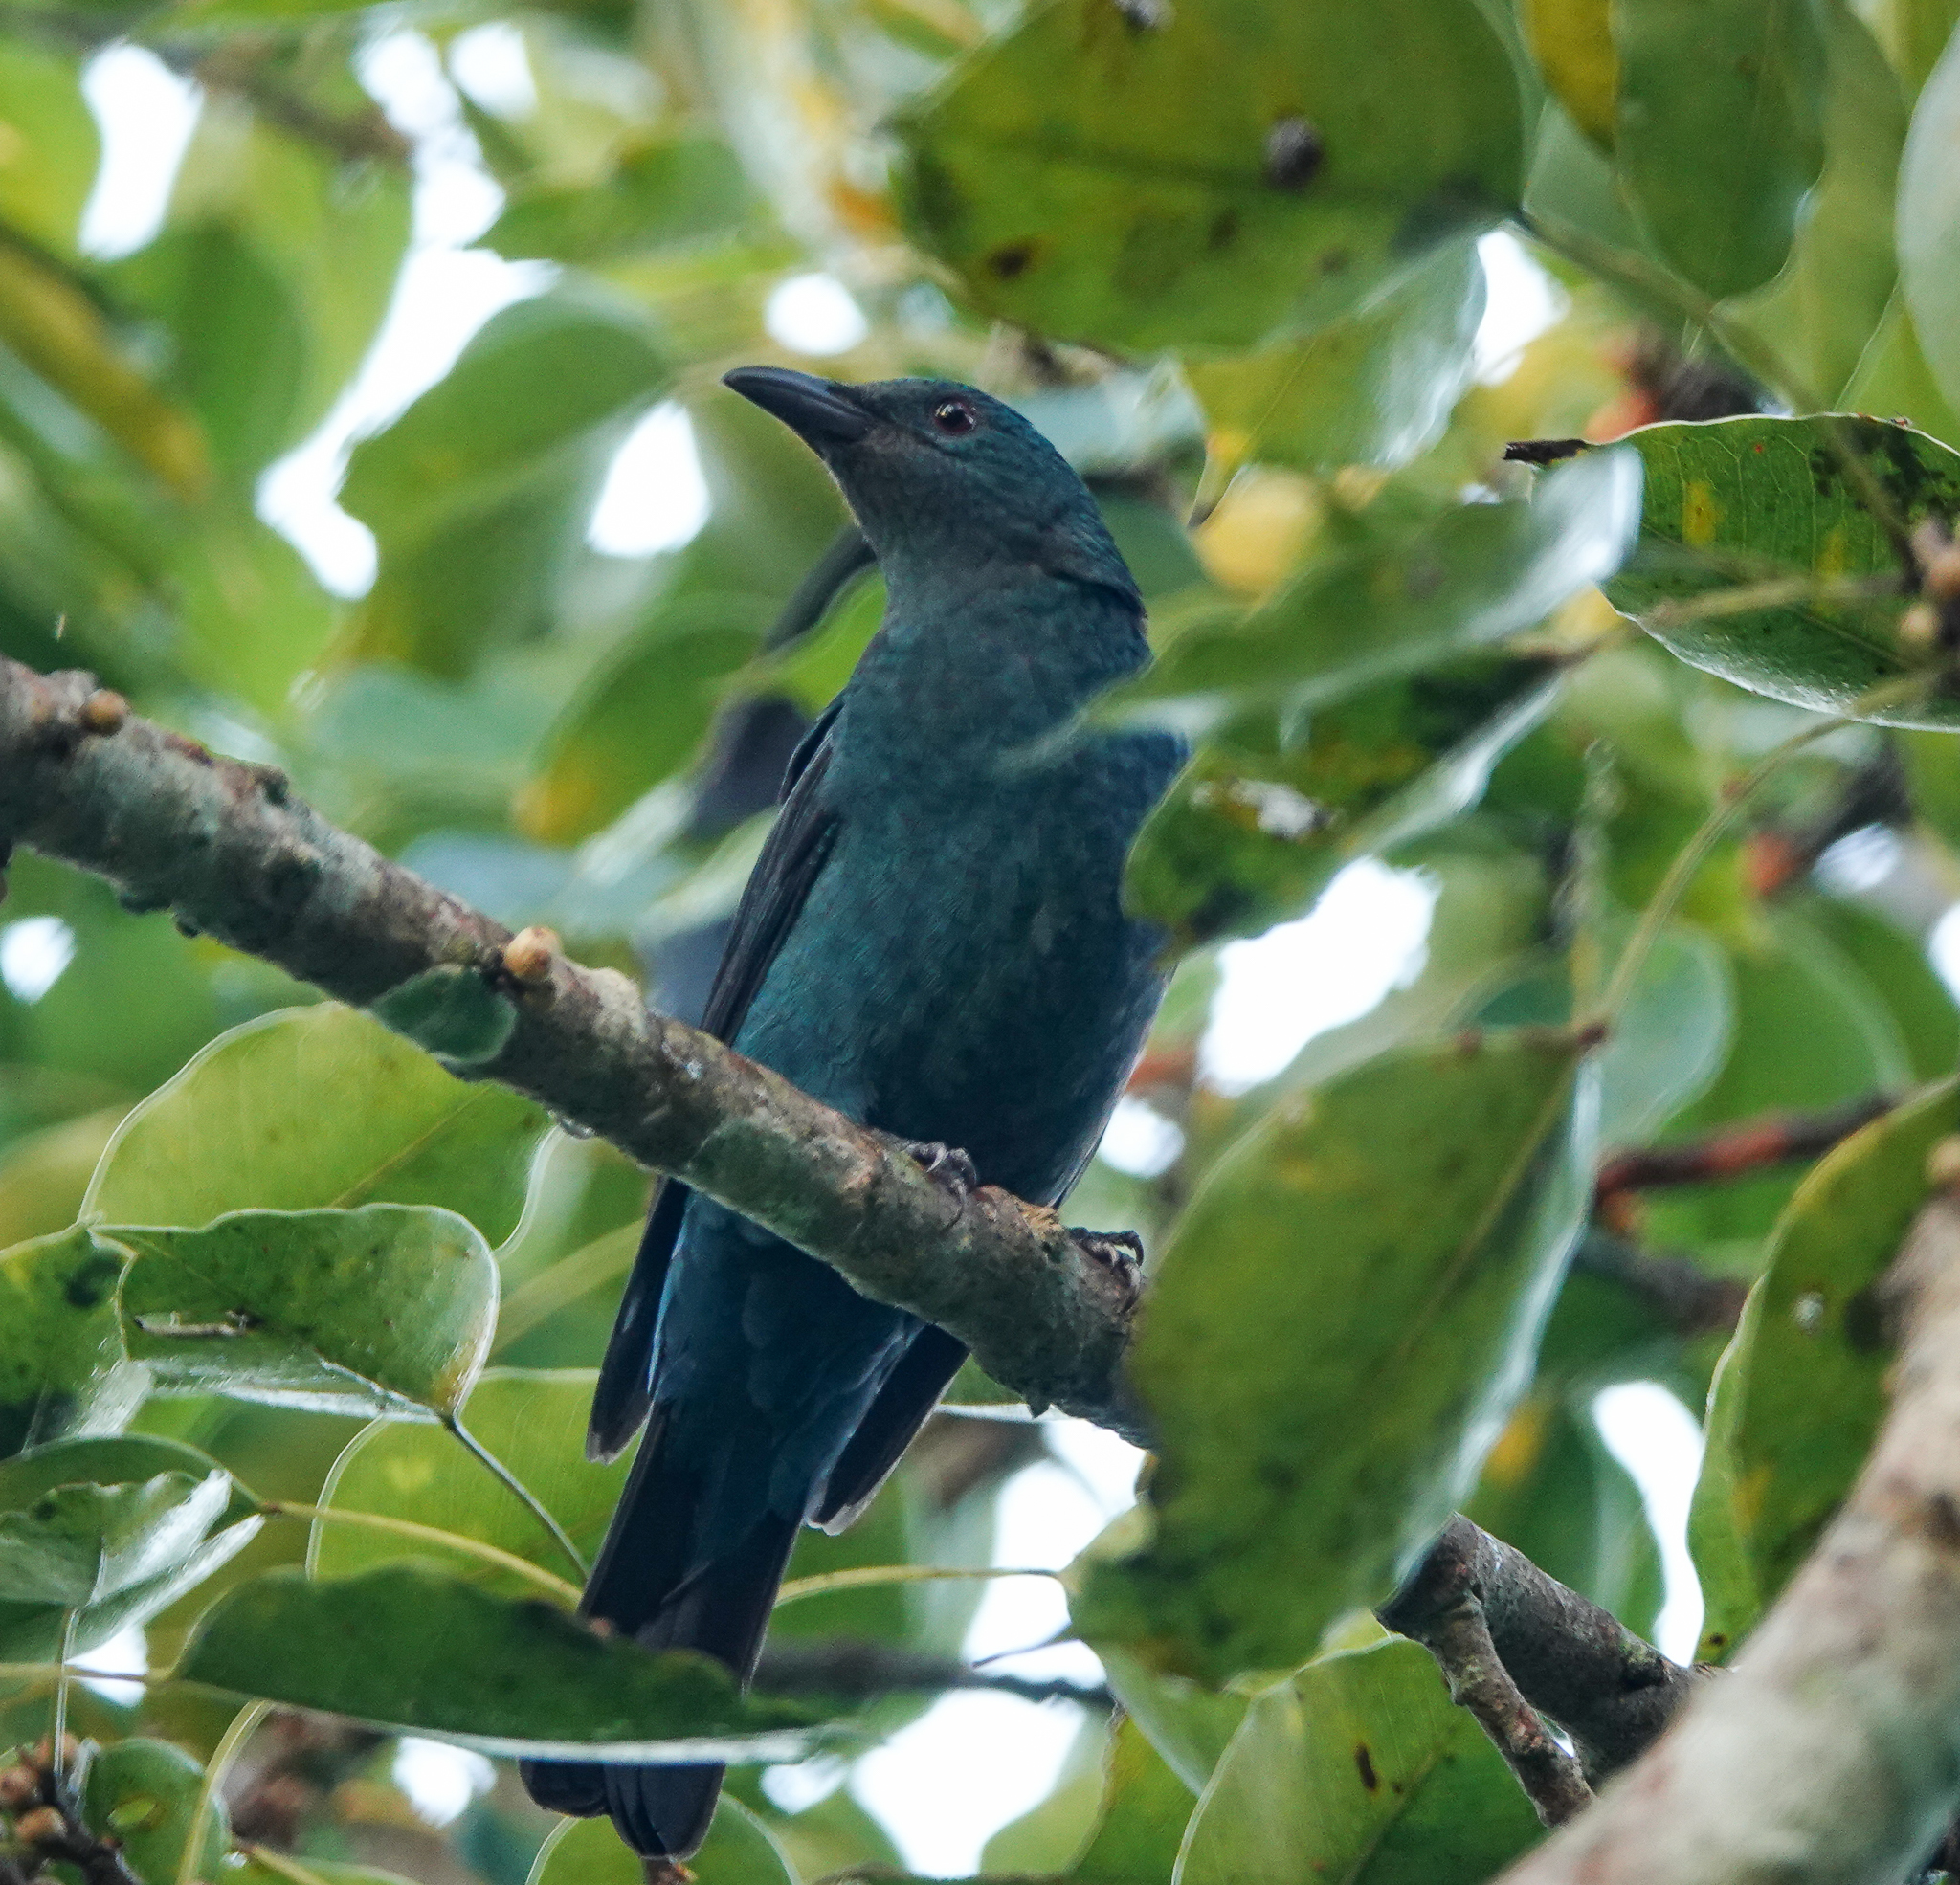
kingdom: Animalia
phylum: Chordata
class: Aves
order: Passeriformes
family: Irenidae
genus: Irena
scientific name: Irena puella
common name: Asian fairy-bluebird
